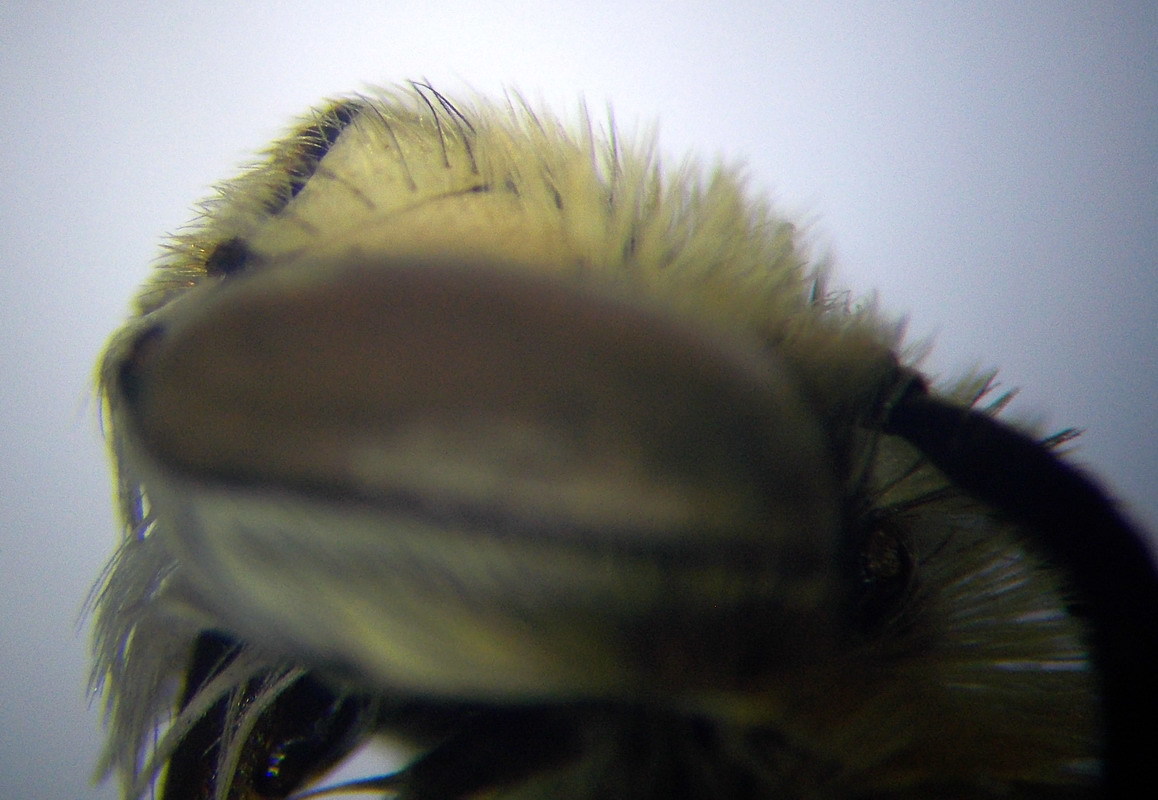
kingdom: Animalia
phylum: Arthropoda
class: Insecta
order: Hymenoptera
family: Apidae
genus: Amegilla
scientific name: Amegilla quadrifasciata
